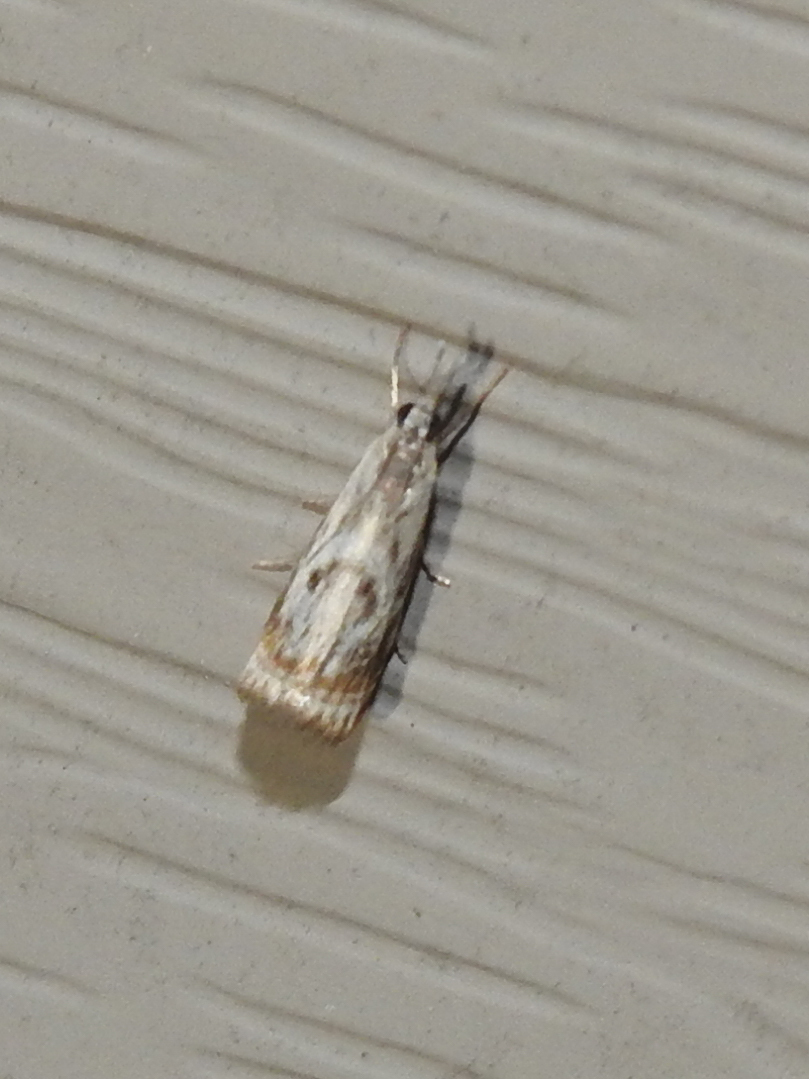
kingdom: Animalia
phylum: Arthropoda
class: Insecta
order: Lepidoptera
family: Crambidae
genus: Microcrambus
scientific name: Microcrambus elegans
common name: Elegant grass-veneer
